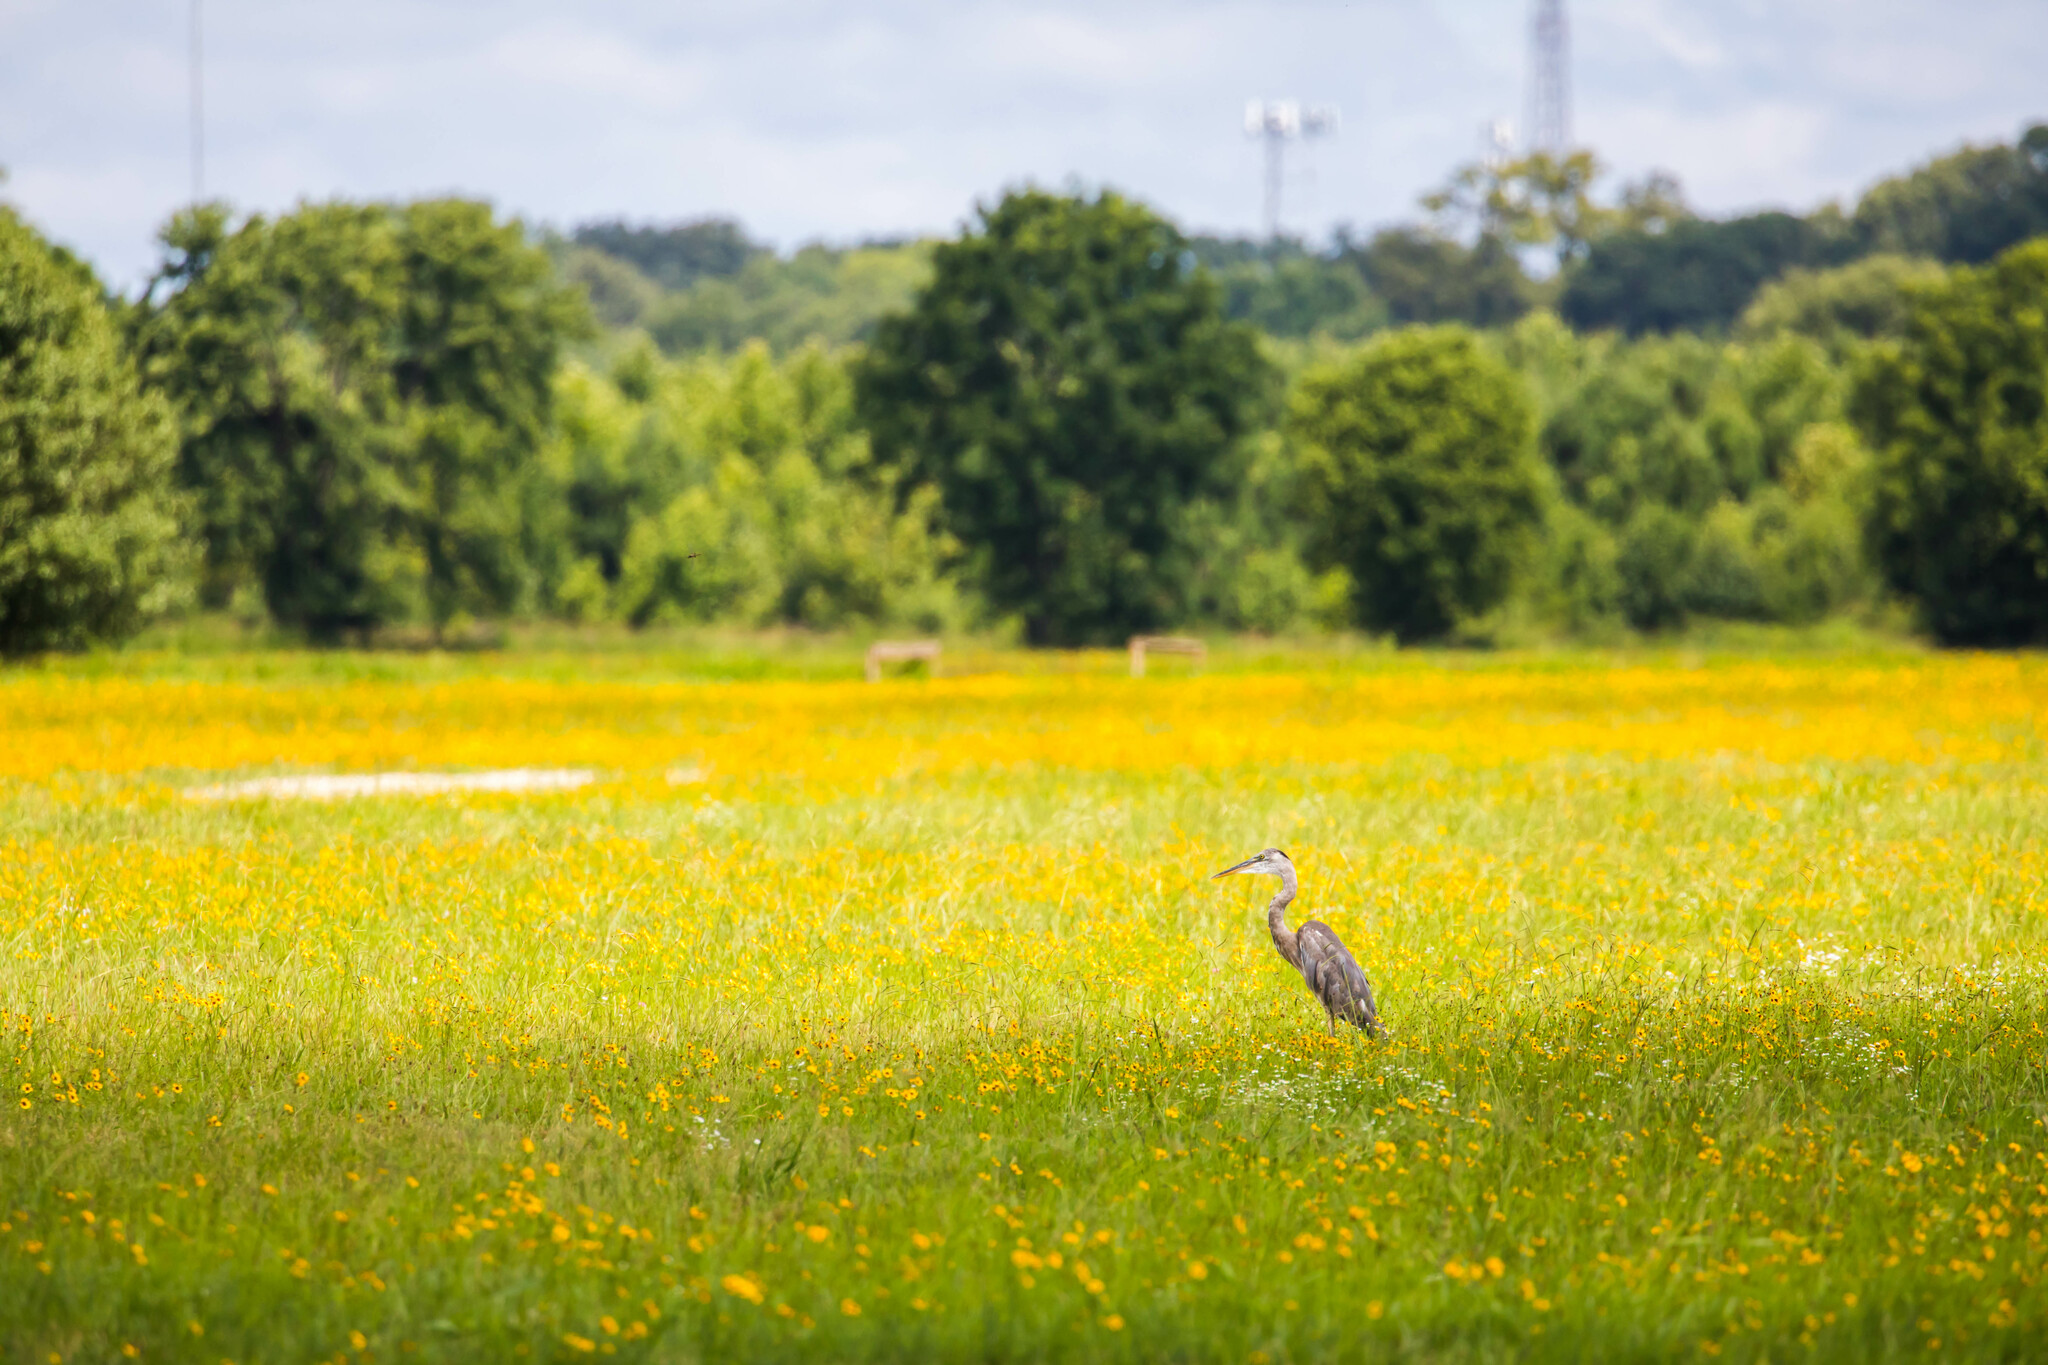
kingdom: Animalia
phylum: Chordata
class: Aves
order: Pelecaniformes
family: Ardeidae
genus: Ardea
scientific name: Ardea herodias
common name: Great blue heron
